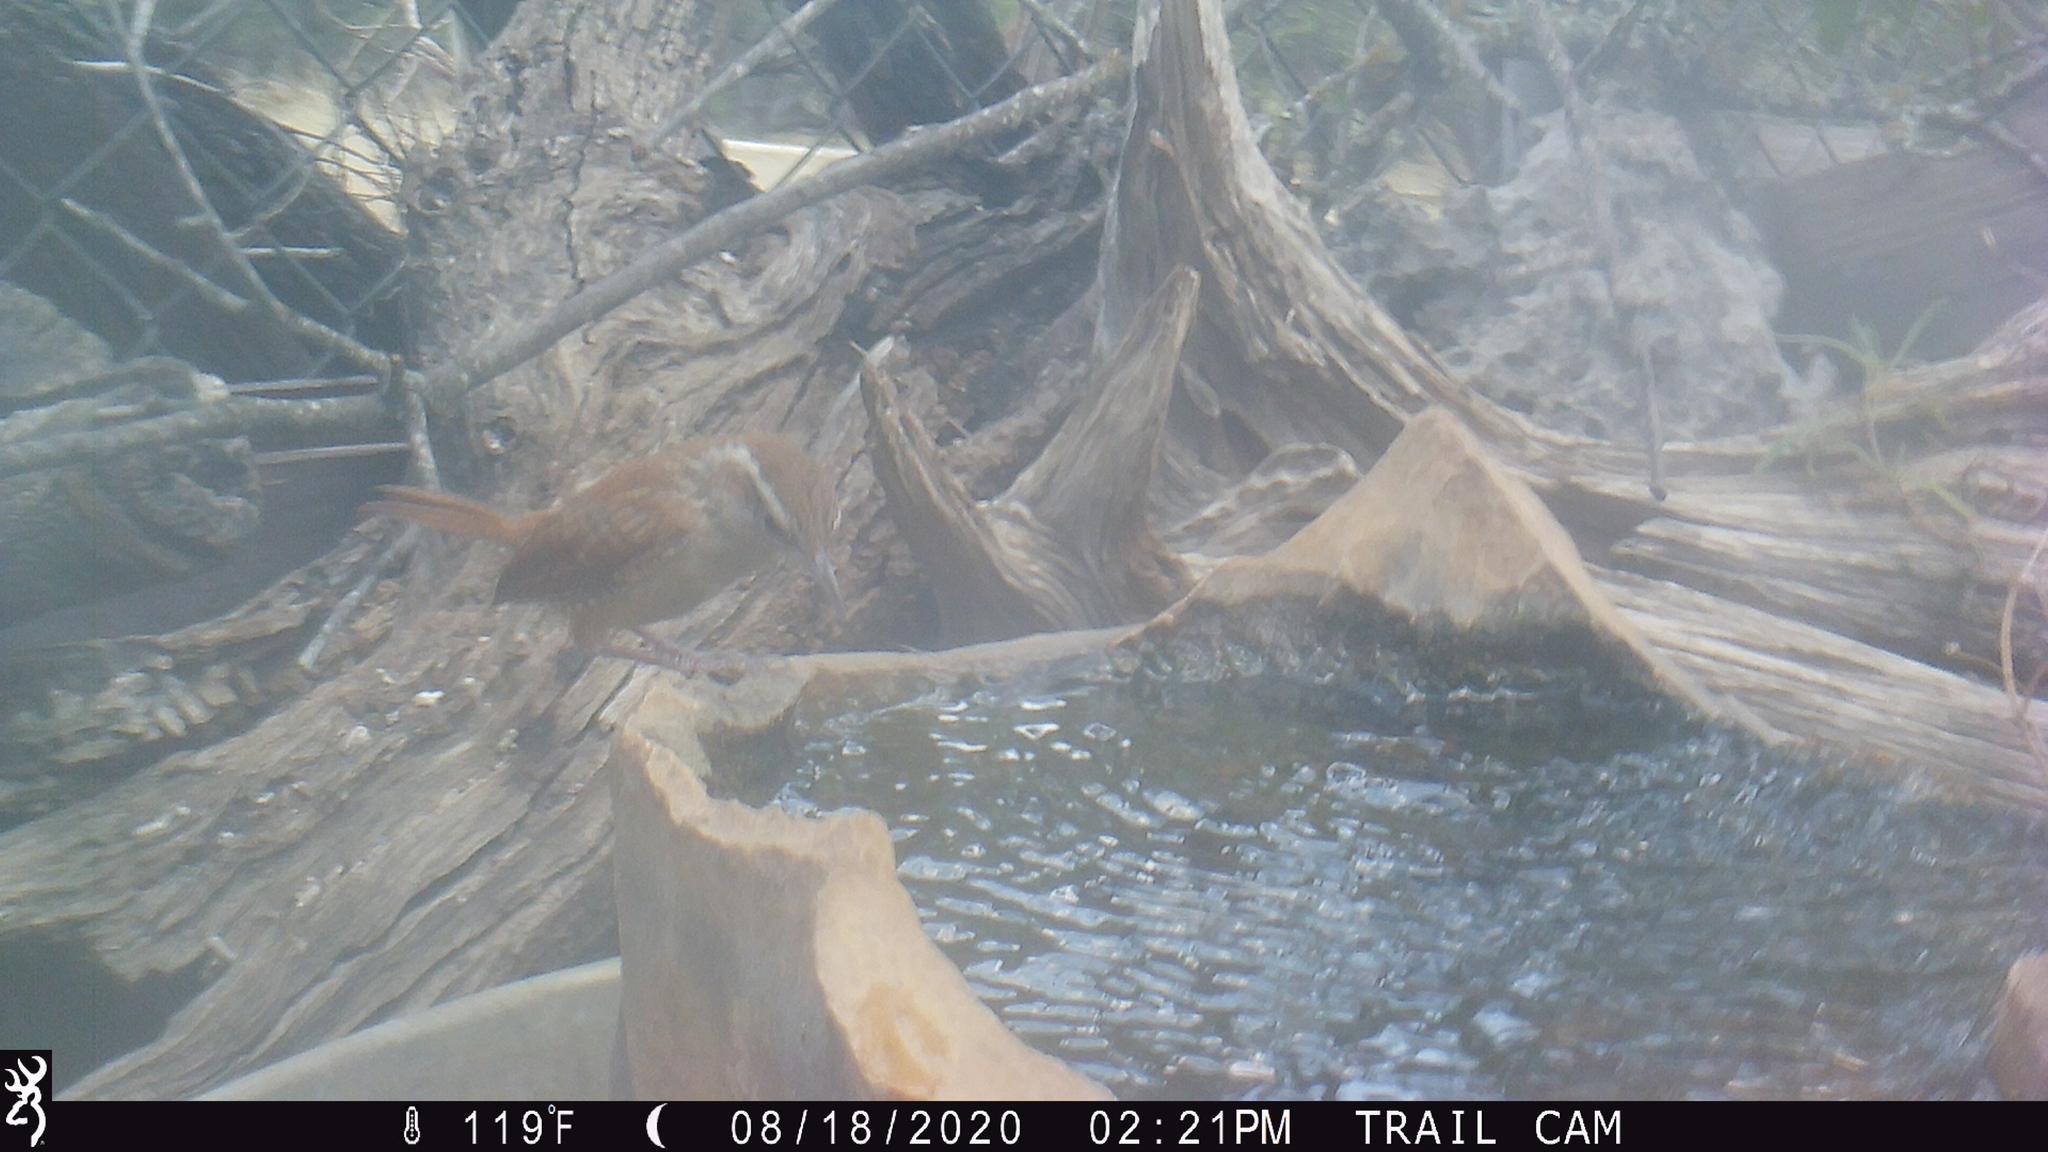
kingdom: Animalia
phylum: Chordata
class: Aves
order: Passeriformes
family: Troglodytidae
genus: Thryothorus
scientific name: Thryothorus ludovicianus
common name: Carolina wren
